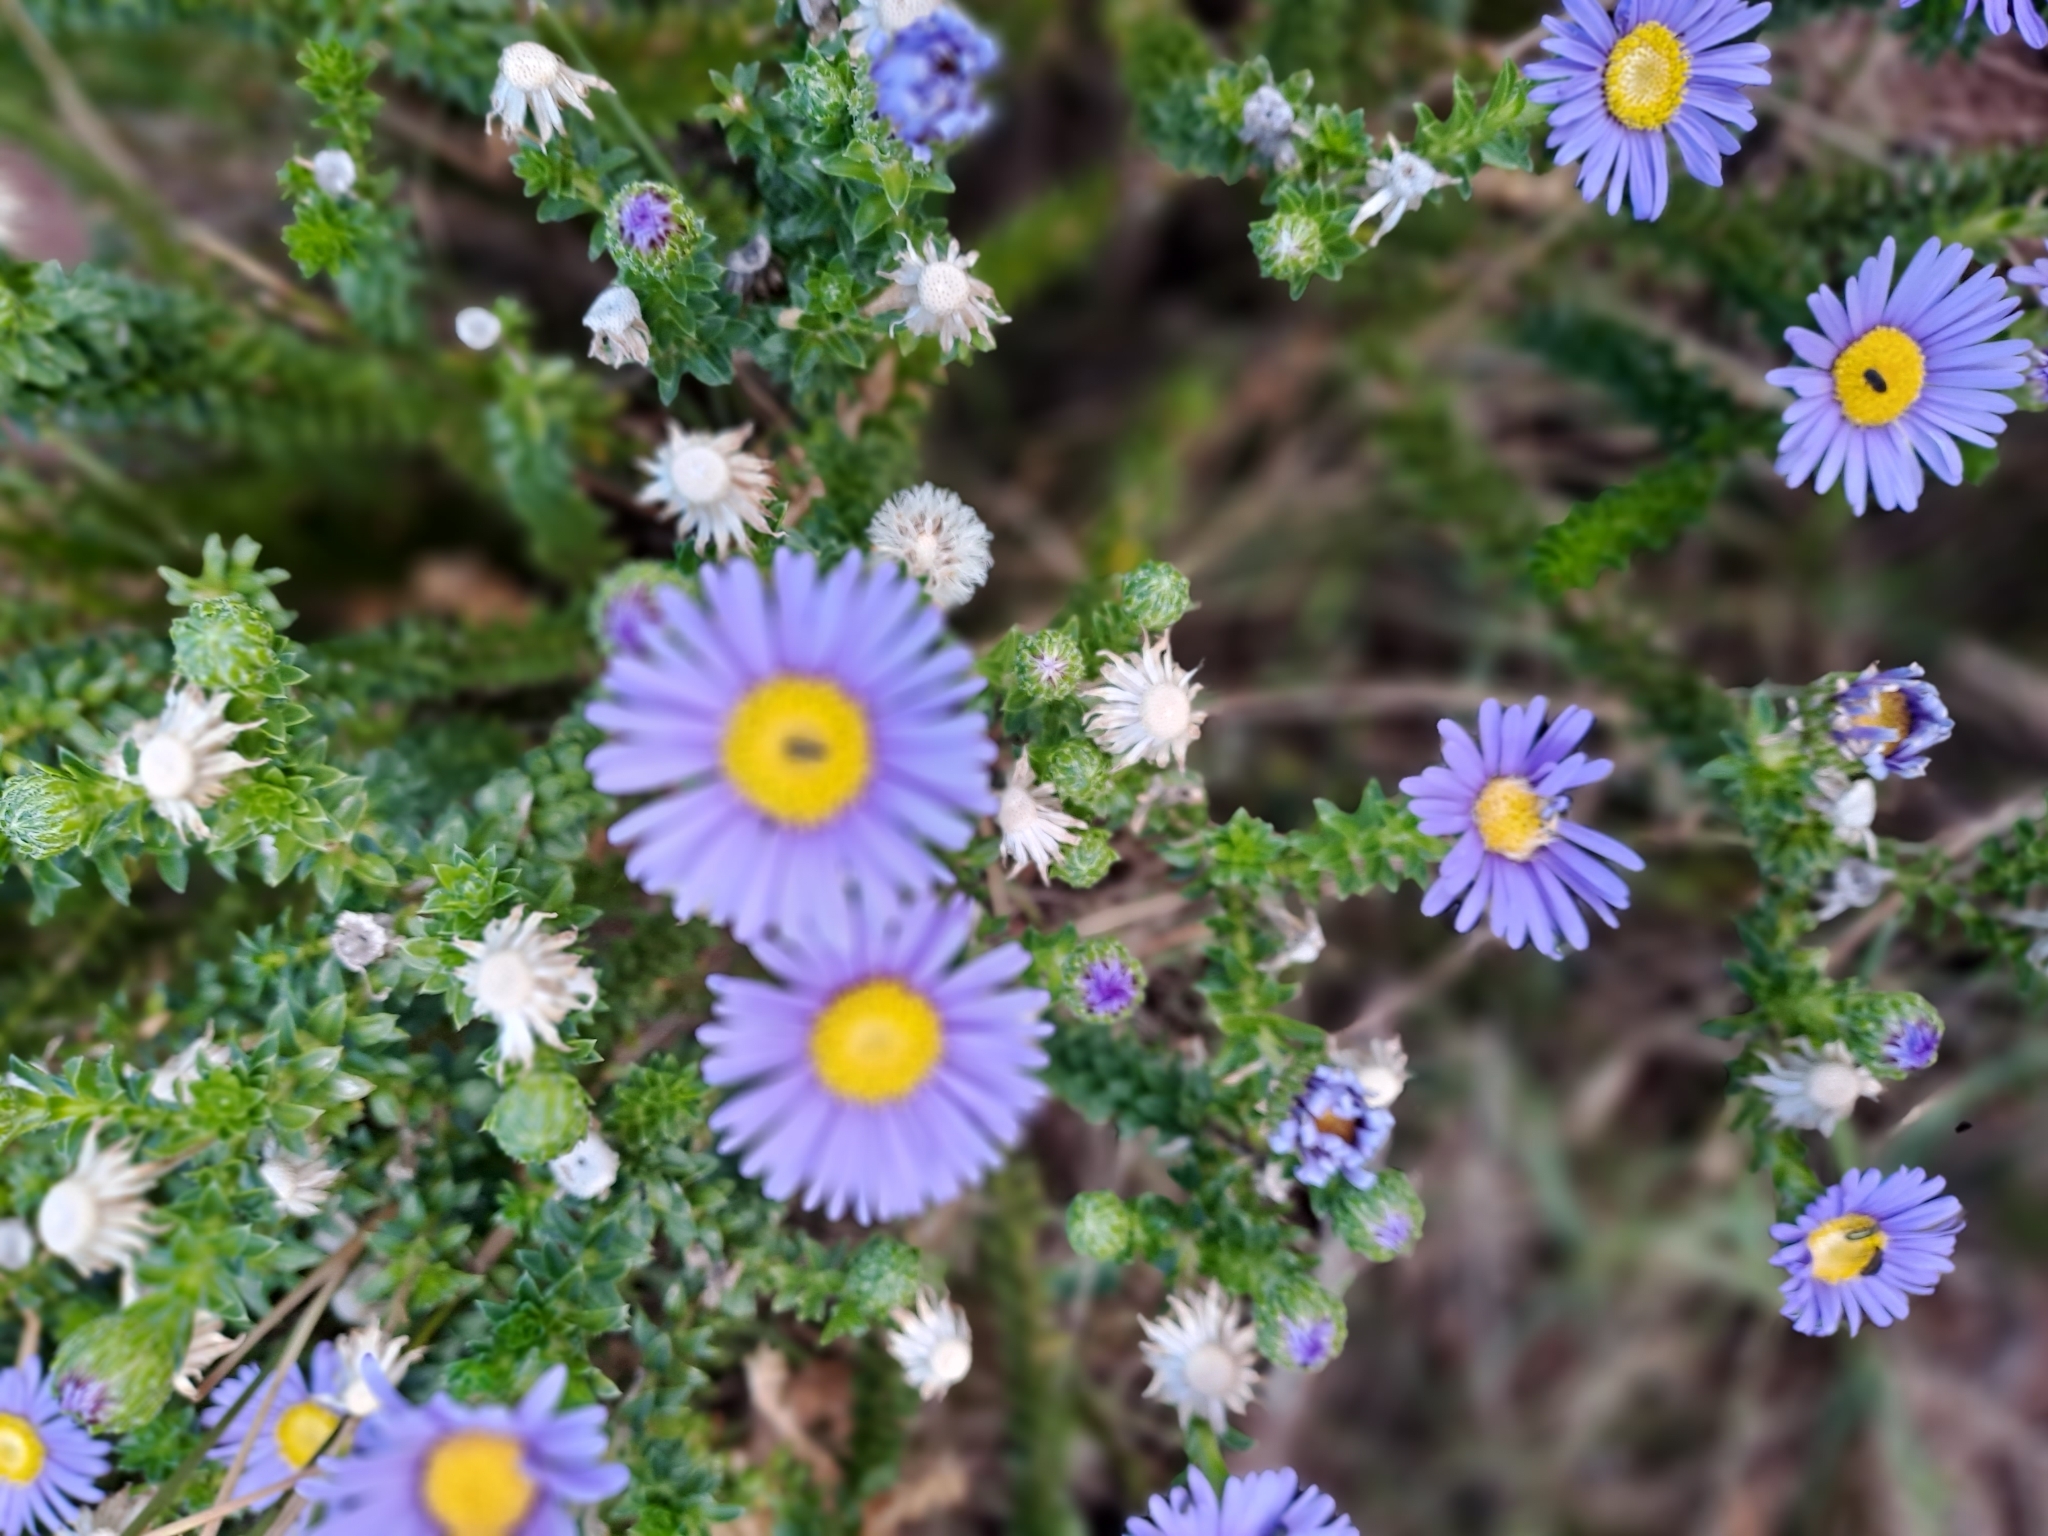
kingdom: Plantae
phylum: Tracheophyta
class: Magnoliopsida
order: Asterales
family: Asteraceae
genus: Felicia
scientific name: Felicia echinata
